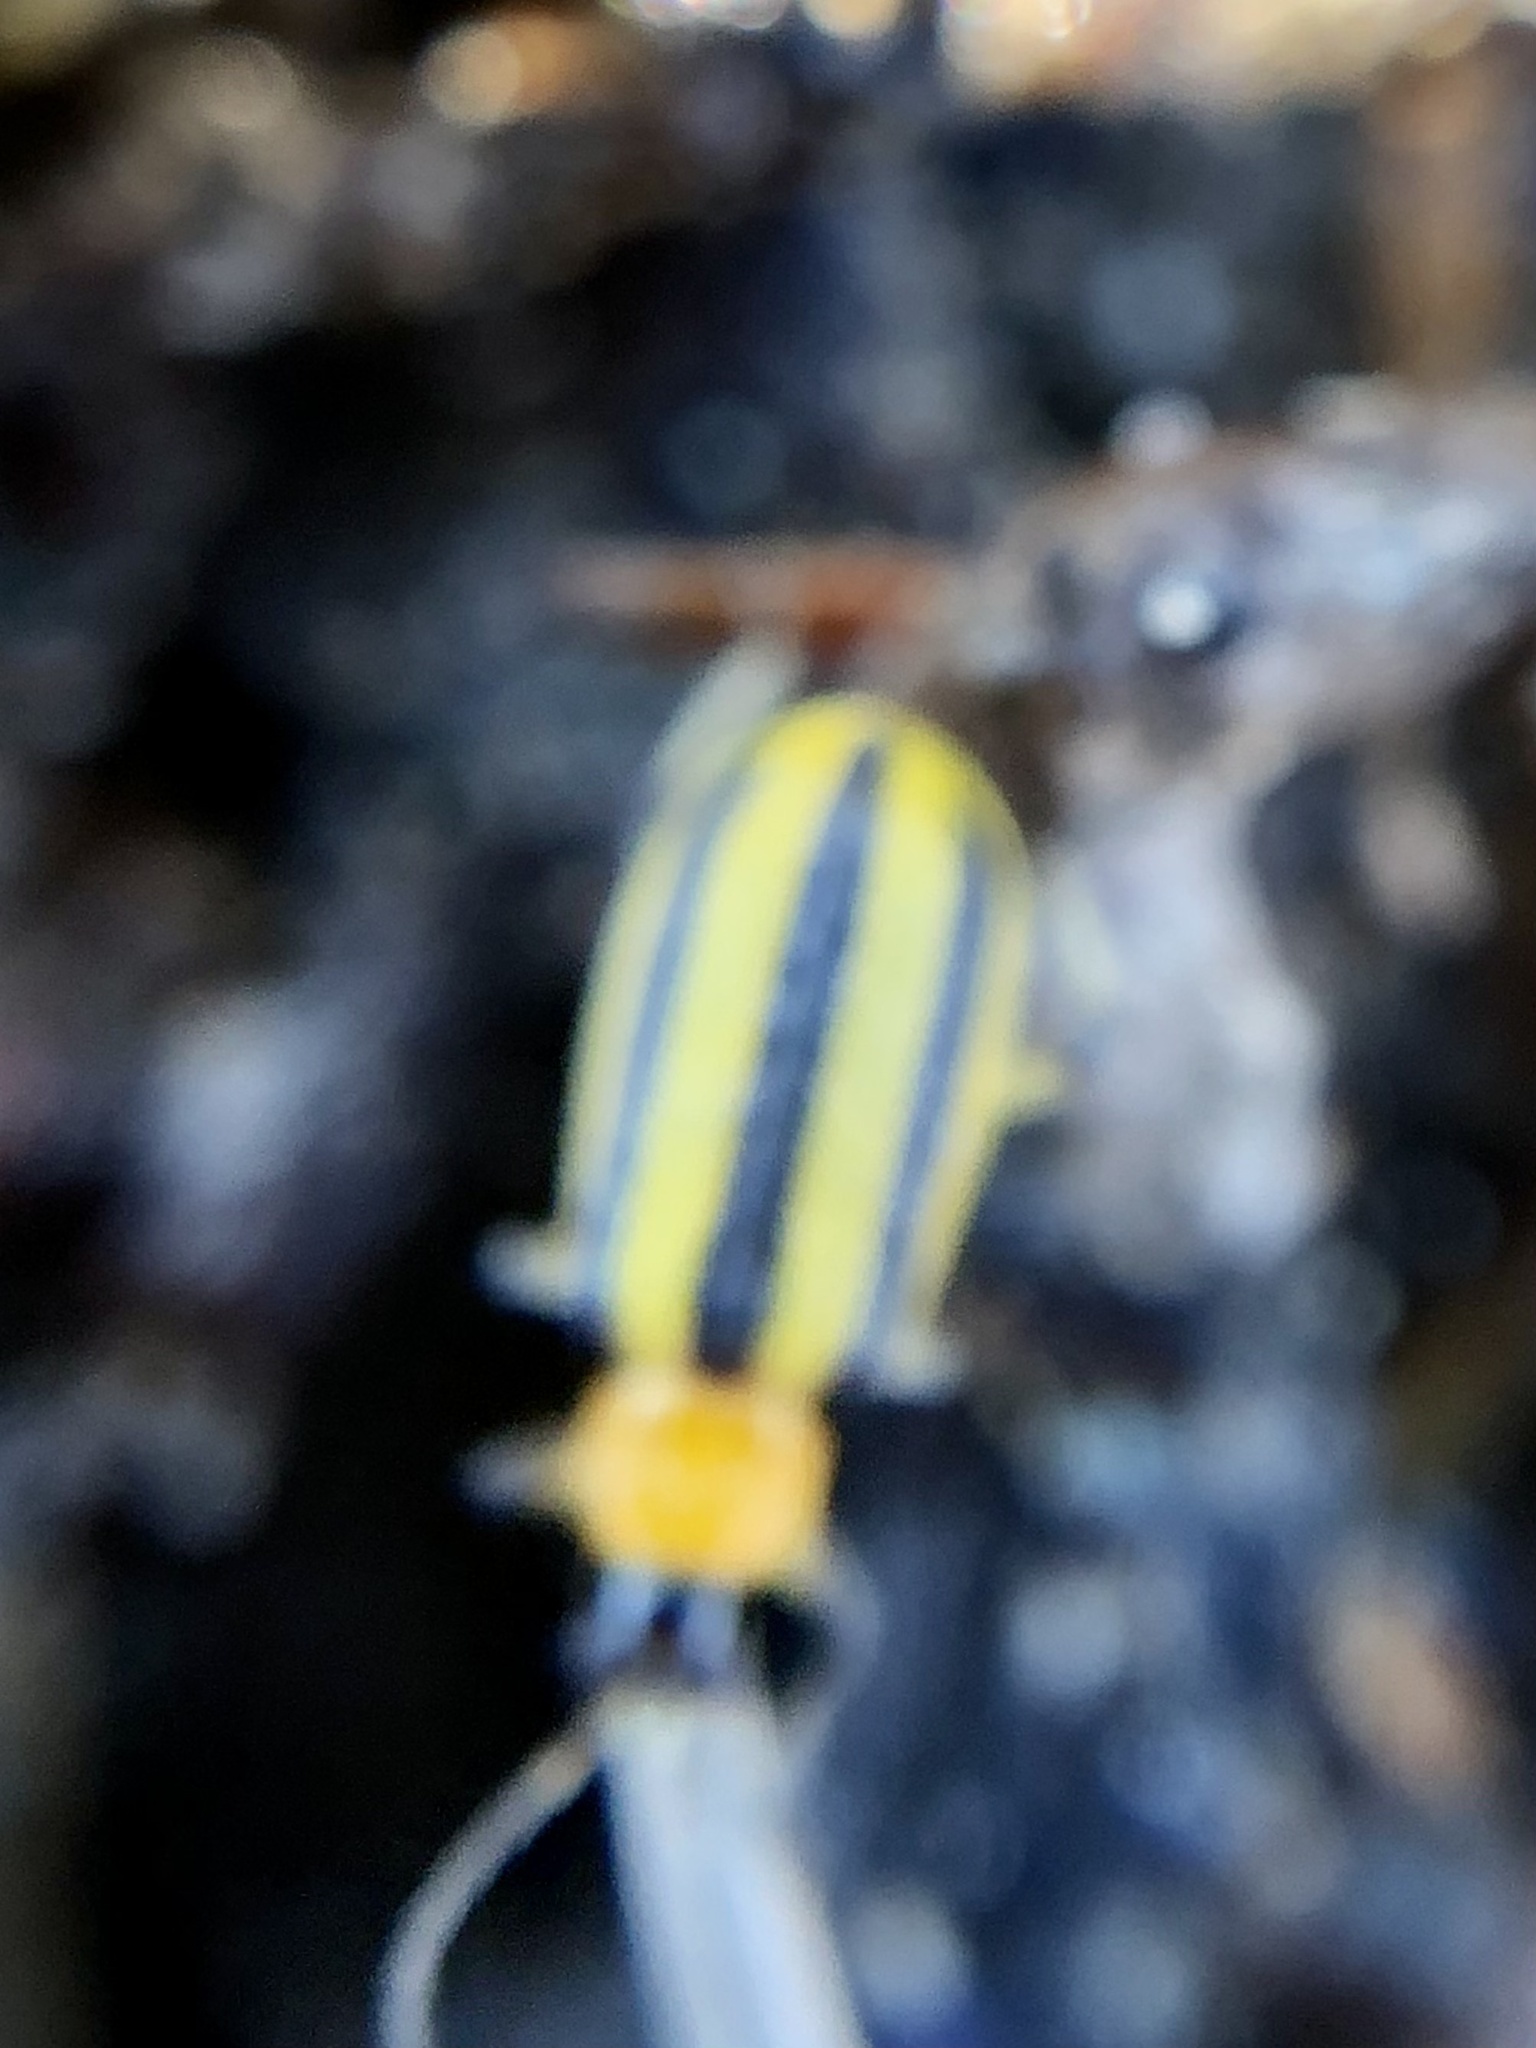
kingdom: Animalia
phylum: Arthropoda
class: Insecta
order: Coleoptera
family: Chrysomelidae
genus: Acalymma
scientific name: Acalymma vittatum
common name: Striped cucumber beetle
